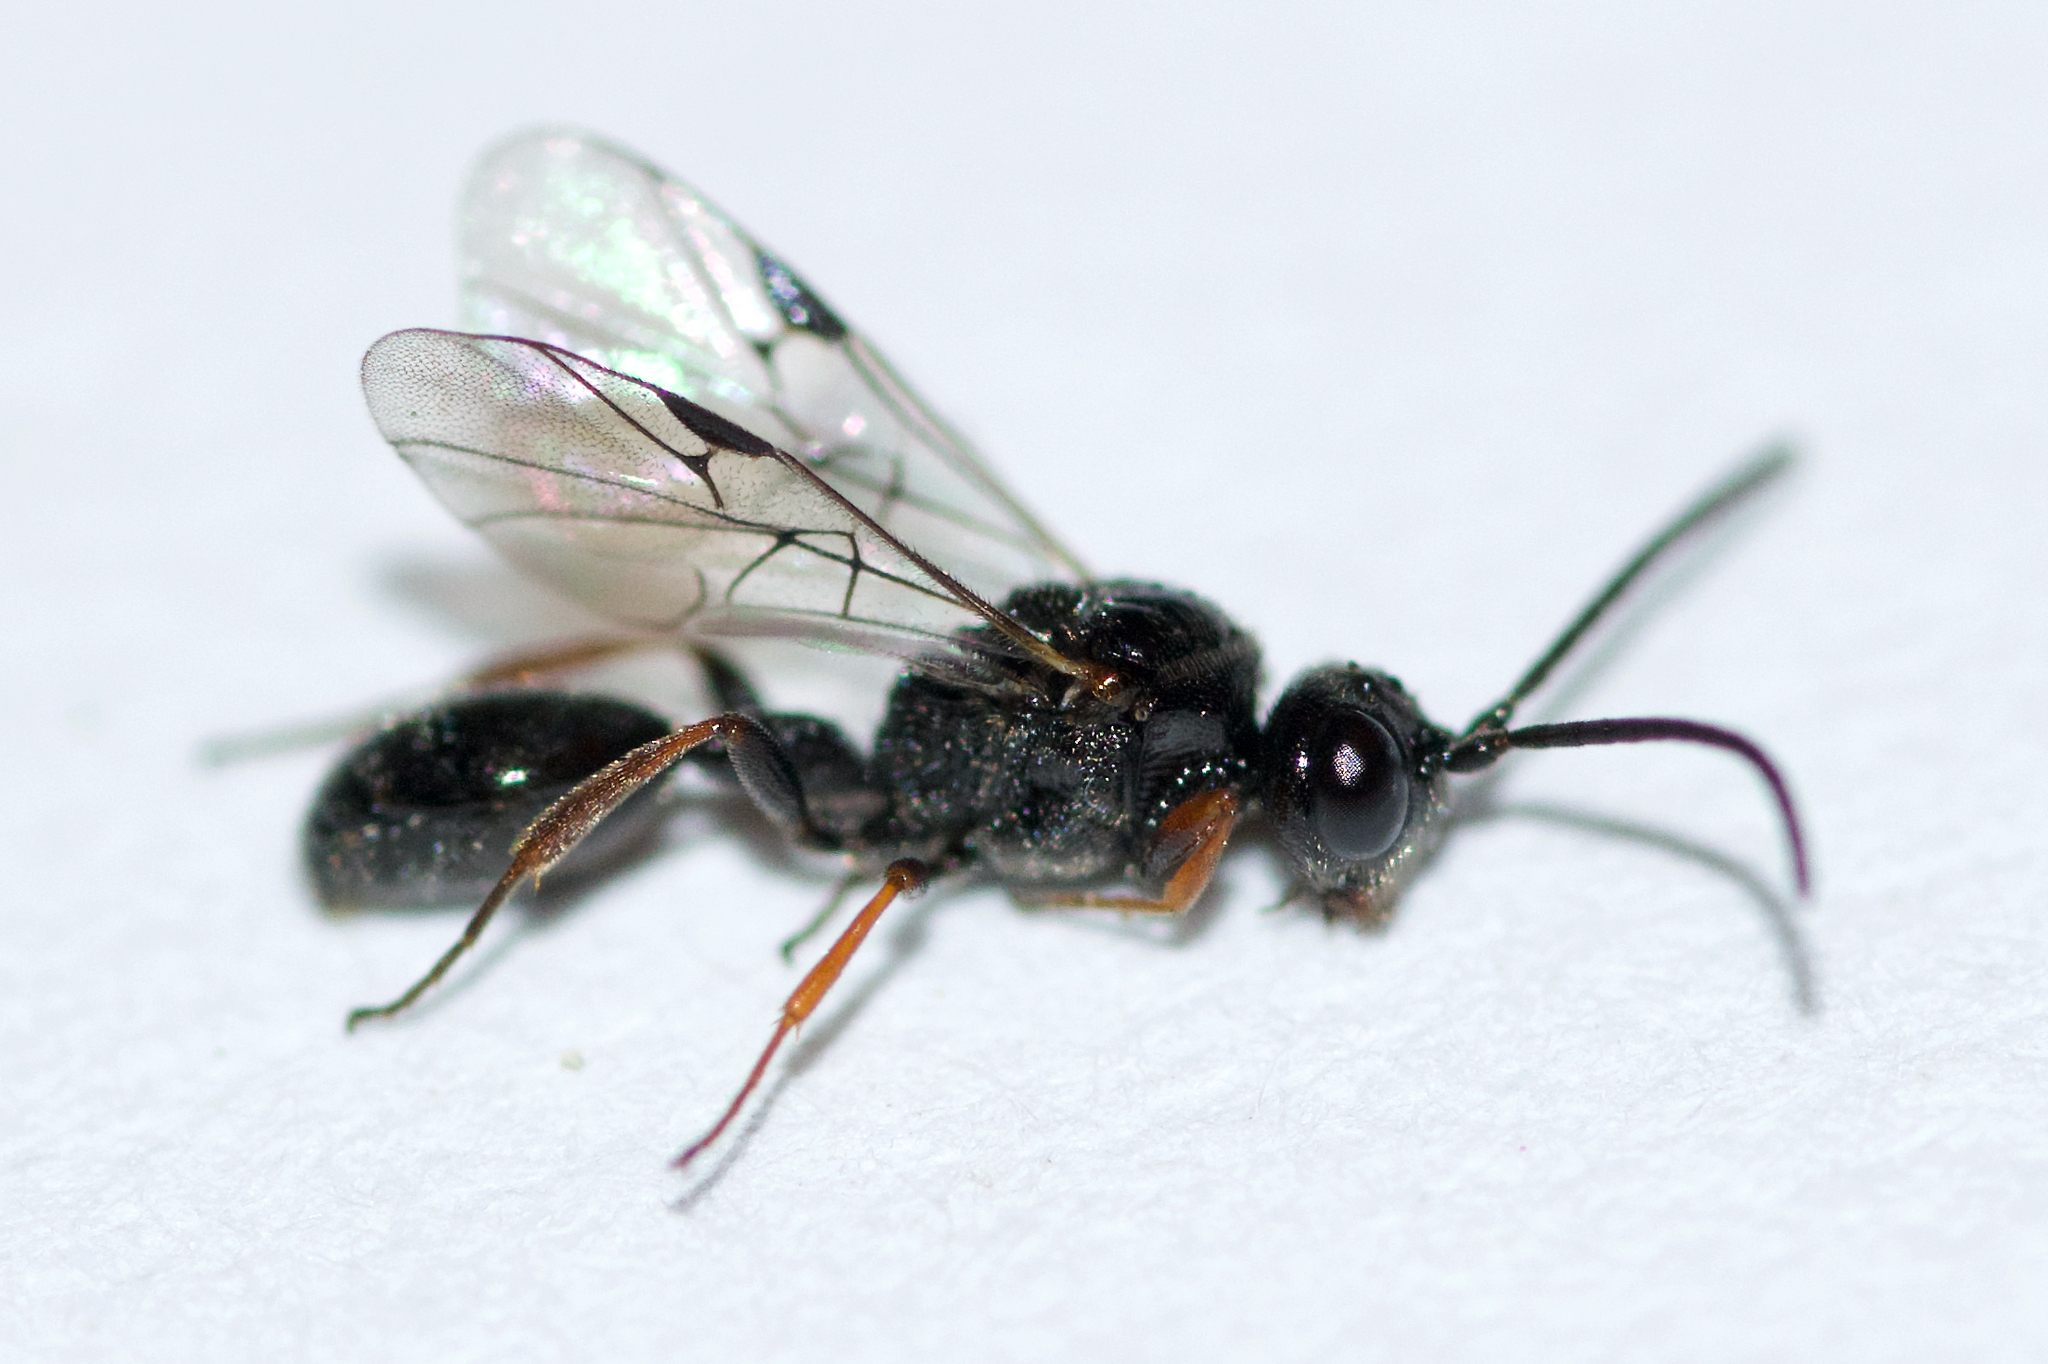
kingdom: Animalia
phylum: Arthropoda
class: Insecta
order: Hymenoptera
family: Heloridae
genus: Helorus
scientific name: Helorus anomalipes
